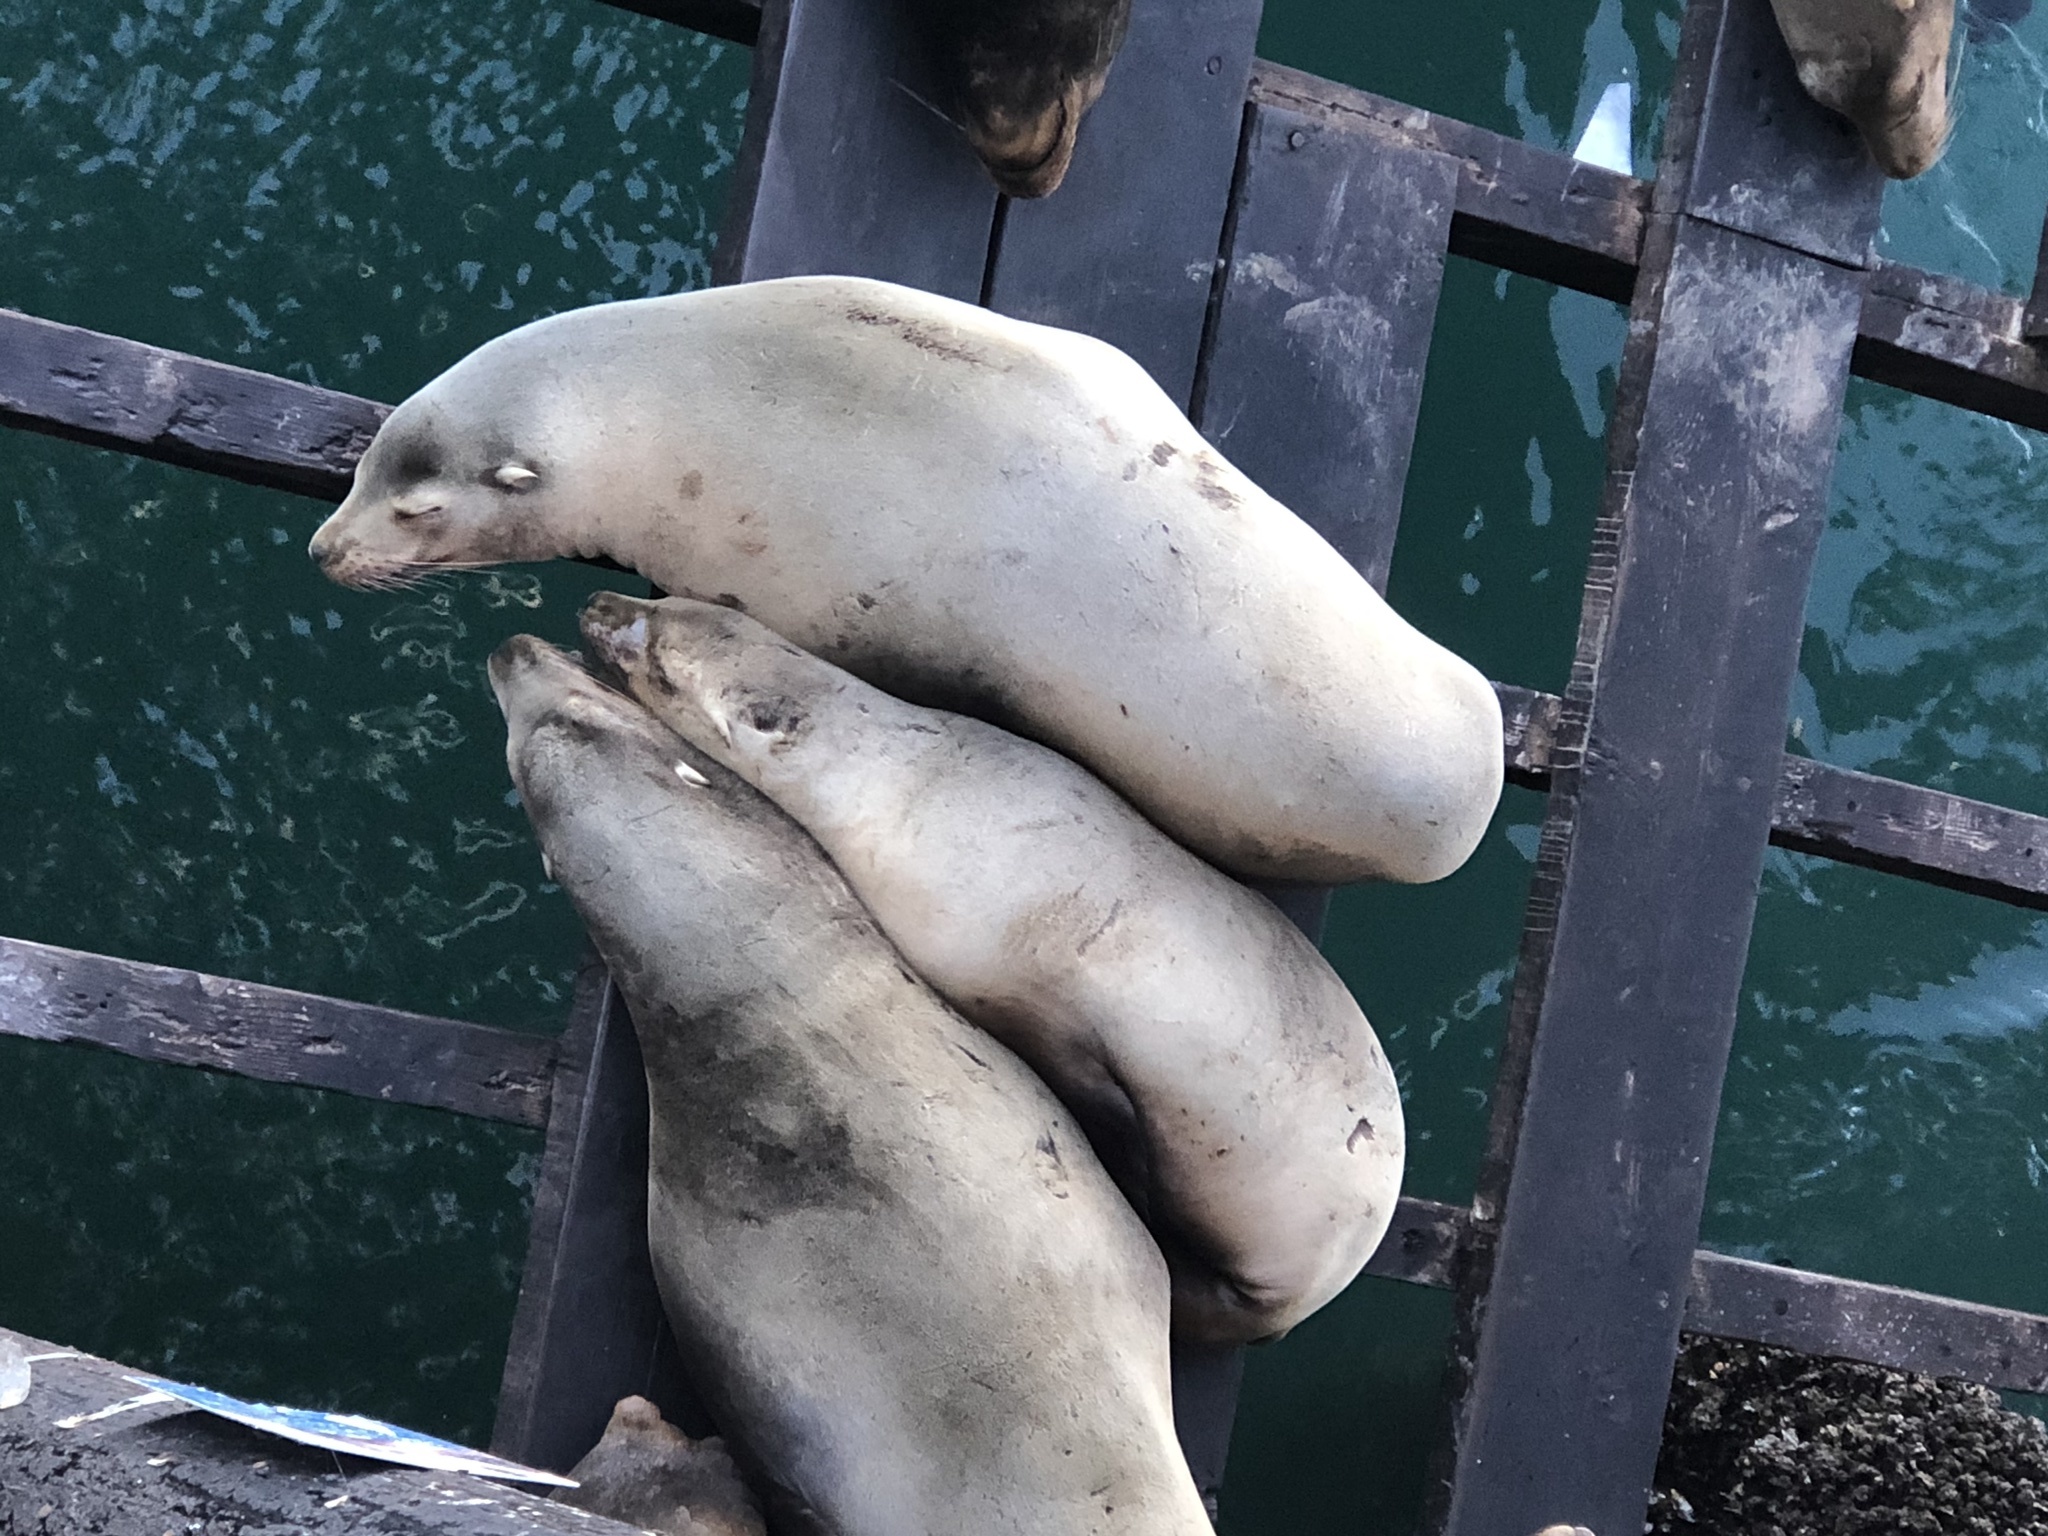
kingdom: Animalia
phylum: Chordata
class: Mammalia
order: Carnivora
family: Otariidae
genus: Zalophus
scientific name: Zalophus californianus
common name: California sea lion
